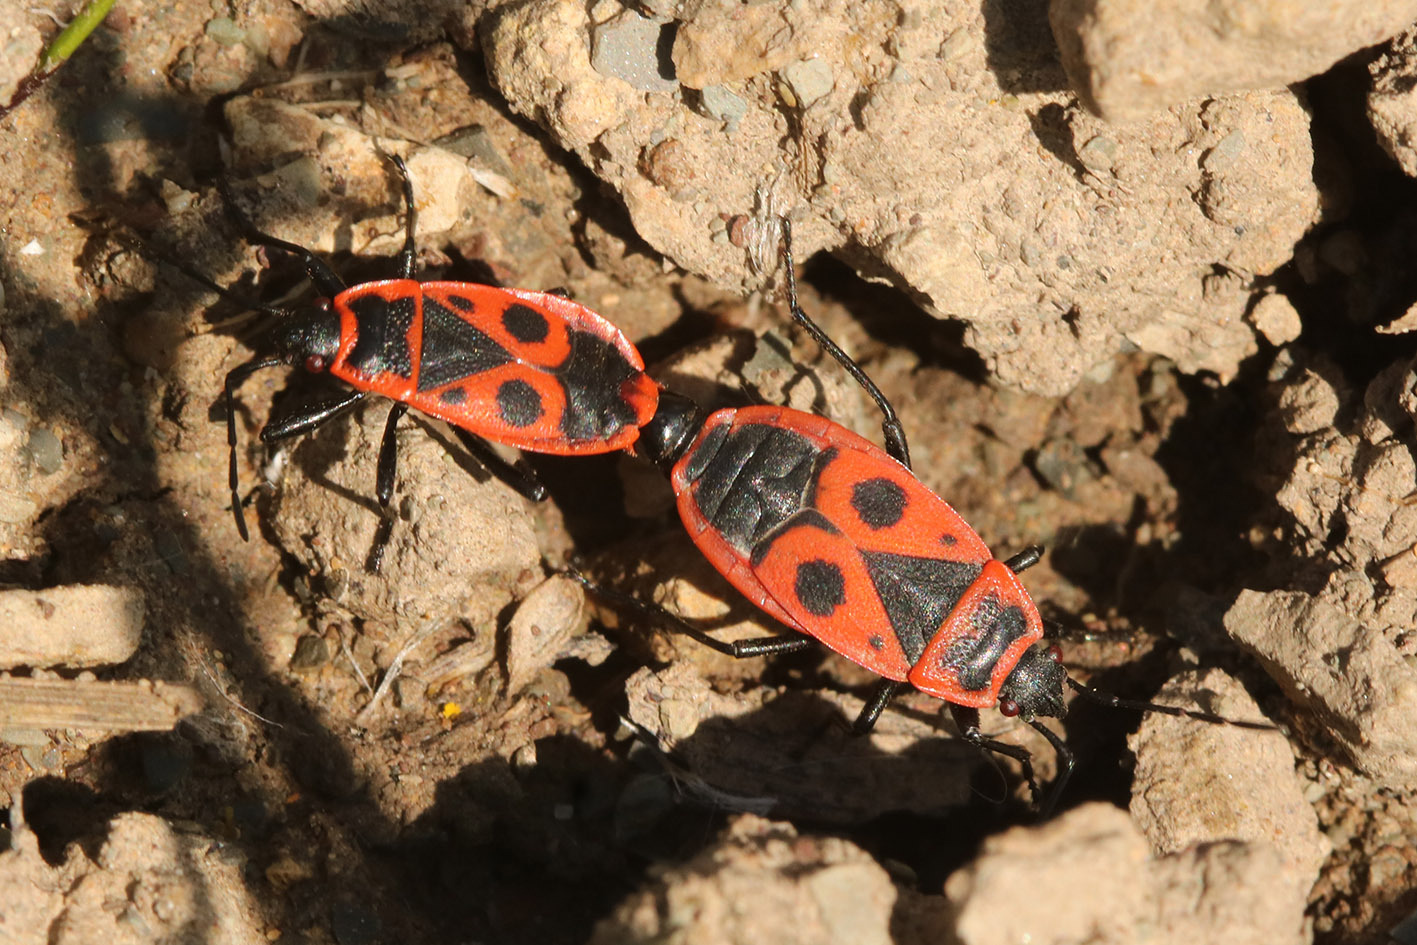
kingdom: Animalia
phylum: Arthropoda
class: Insecta
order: Hemiptera
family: Pyrrhocoridae
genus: Pyrrhocoris
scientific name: Pyrrhocoris apterus
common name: Firebug
